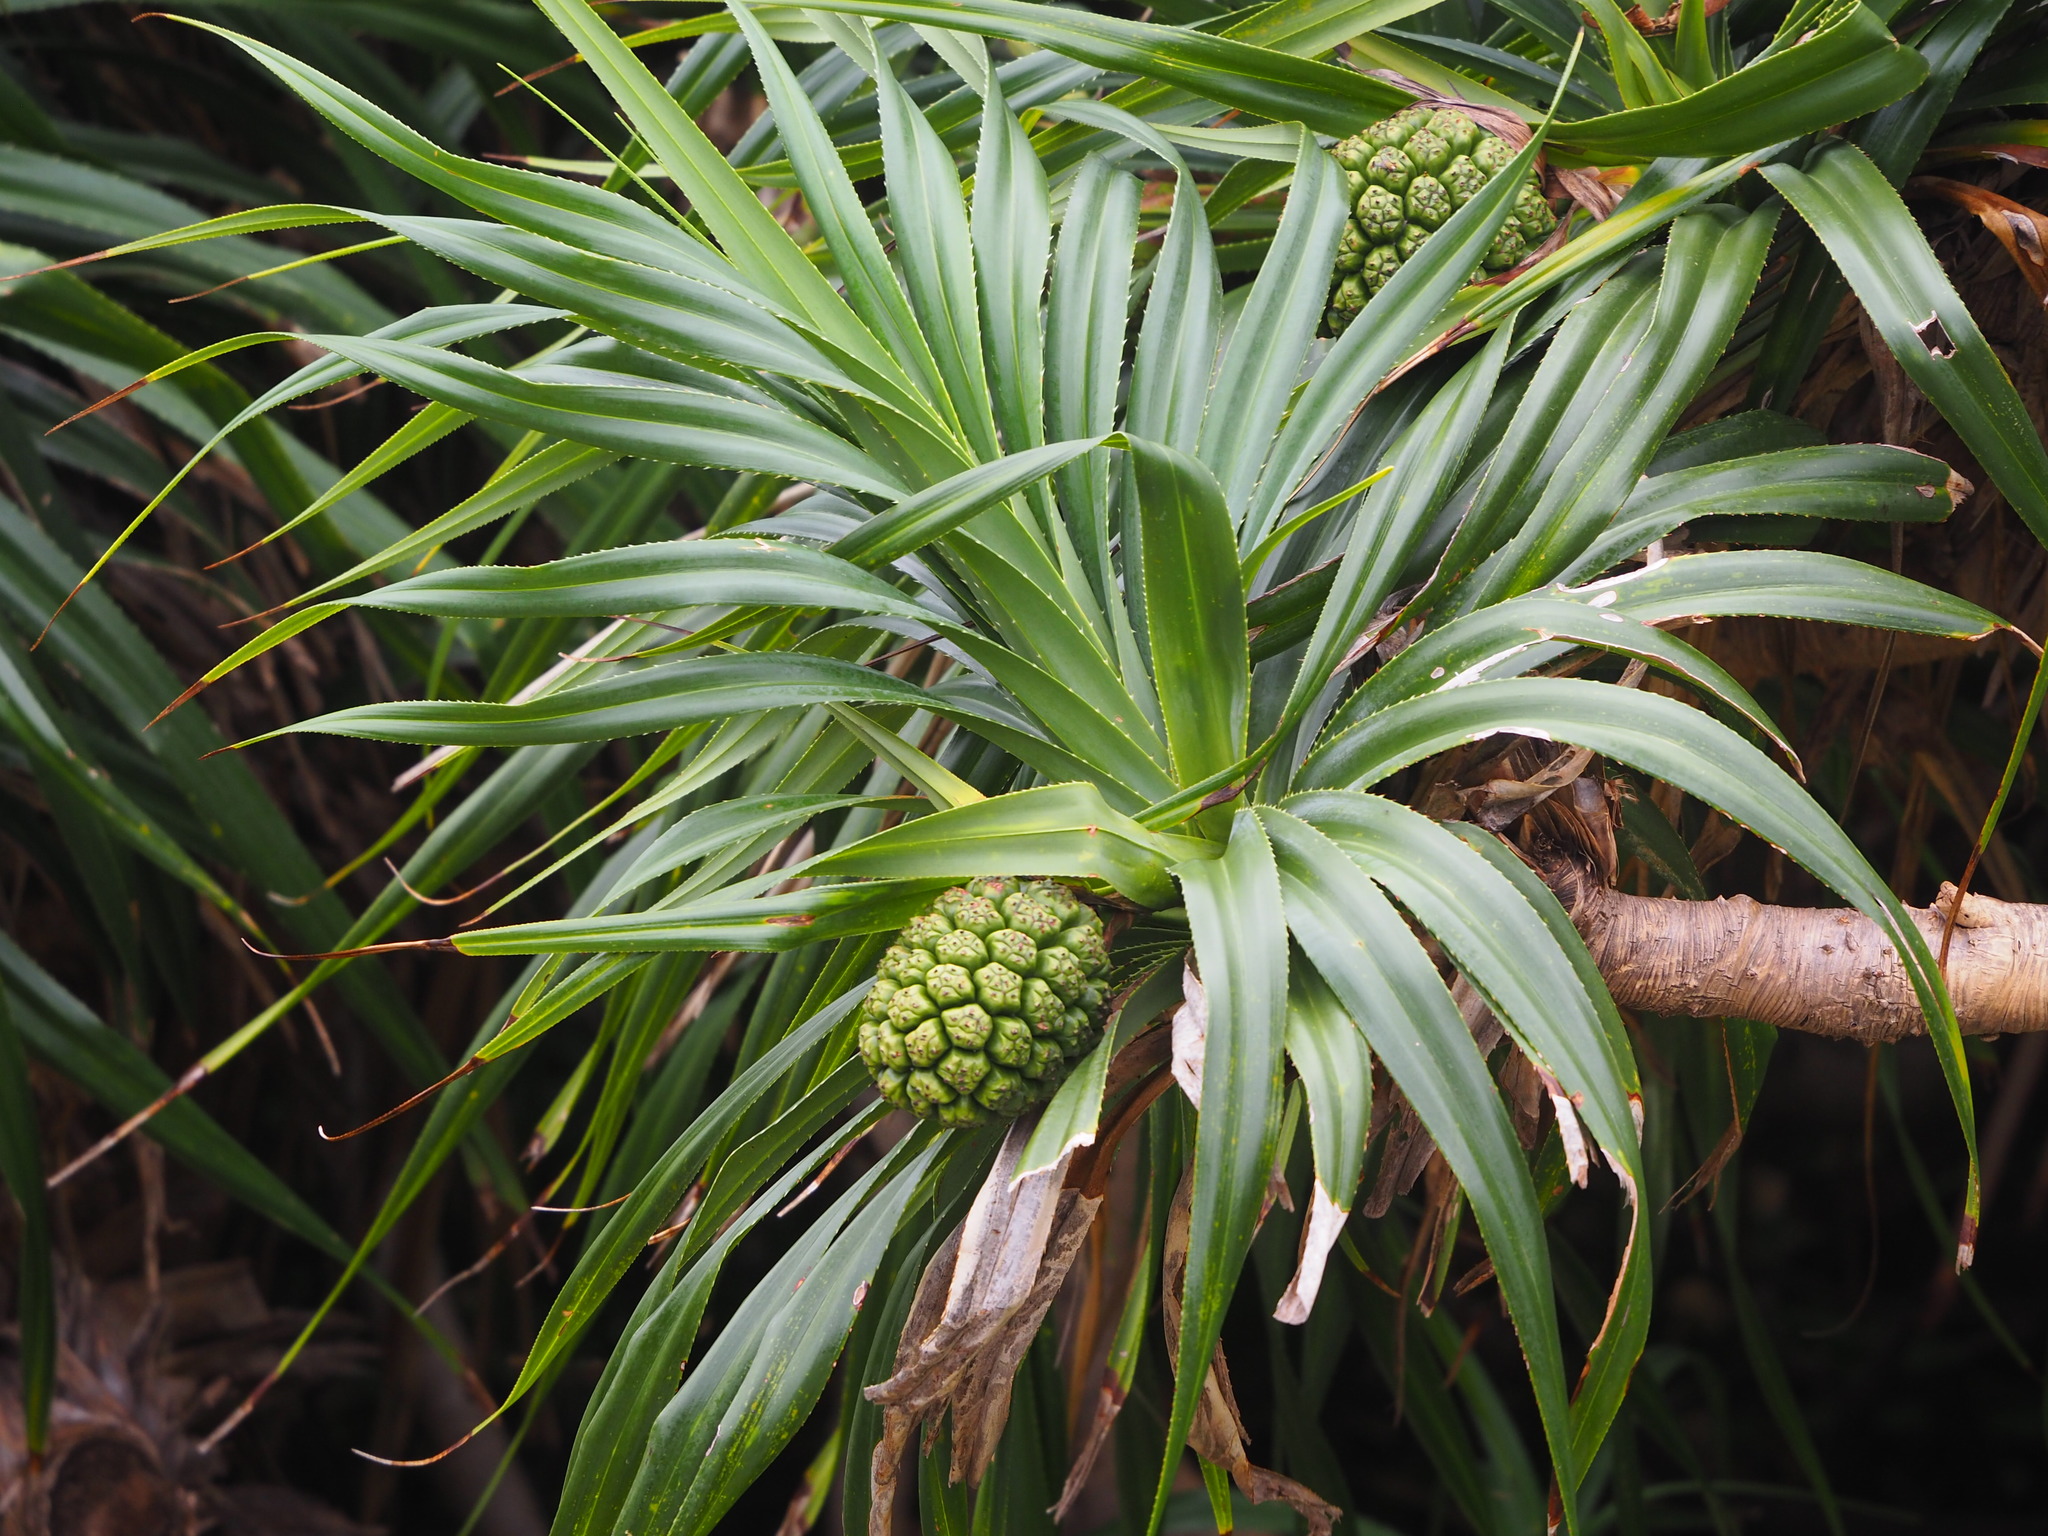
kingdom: Plantae
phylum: Tracheophyta
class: Liliopsida
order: Pandanales
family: Pandanaceae
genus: Pandanus
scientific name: Pandanus odorifer
